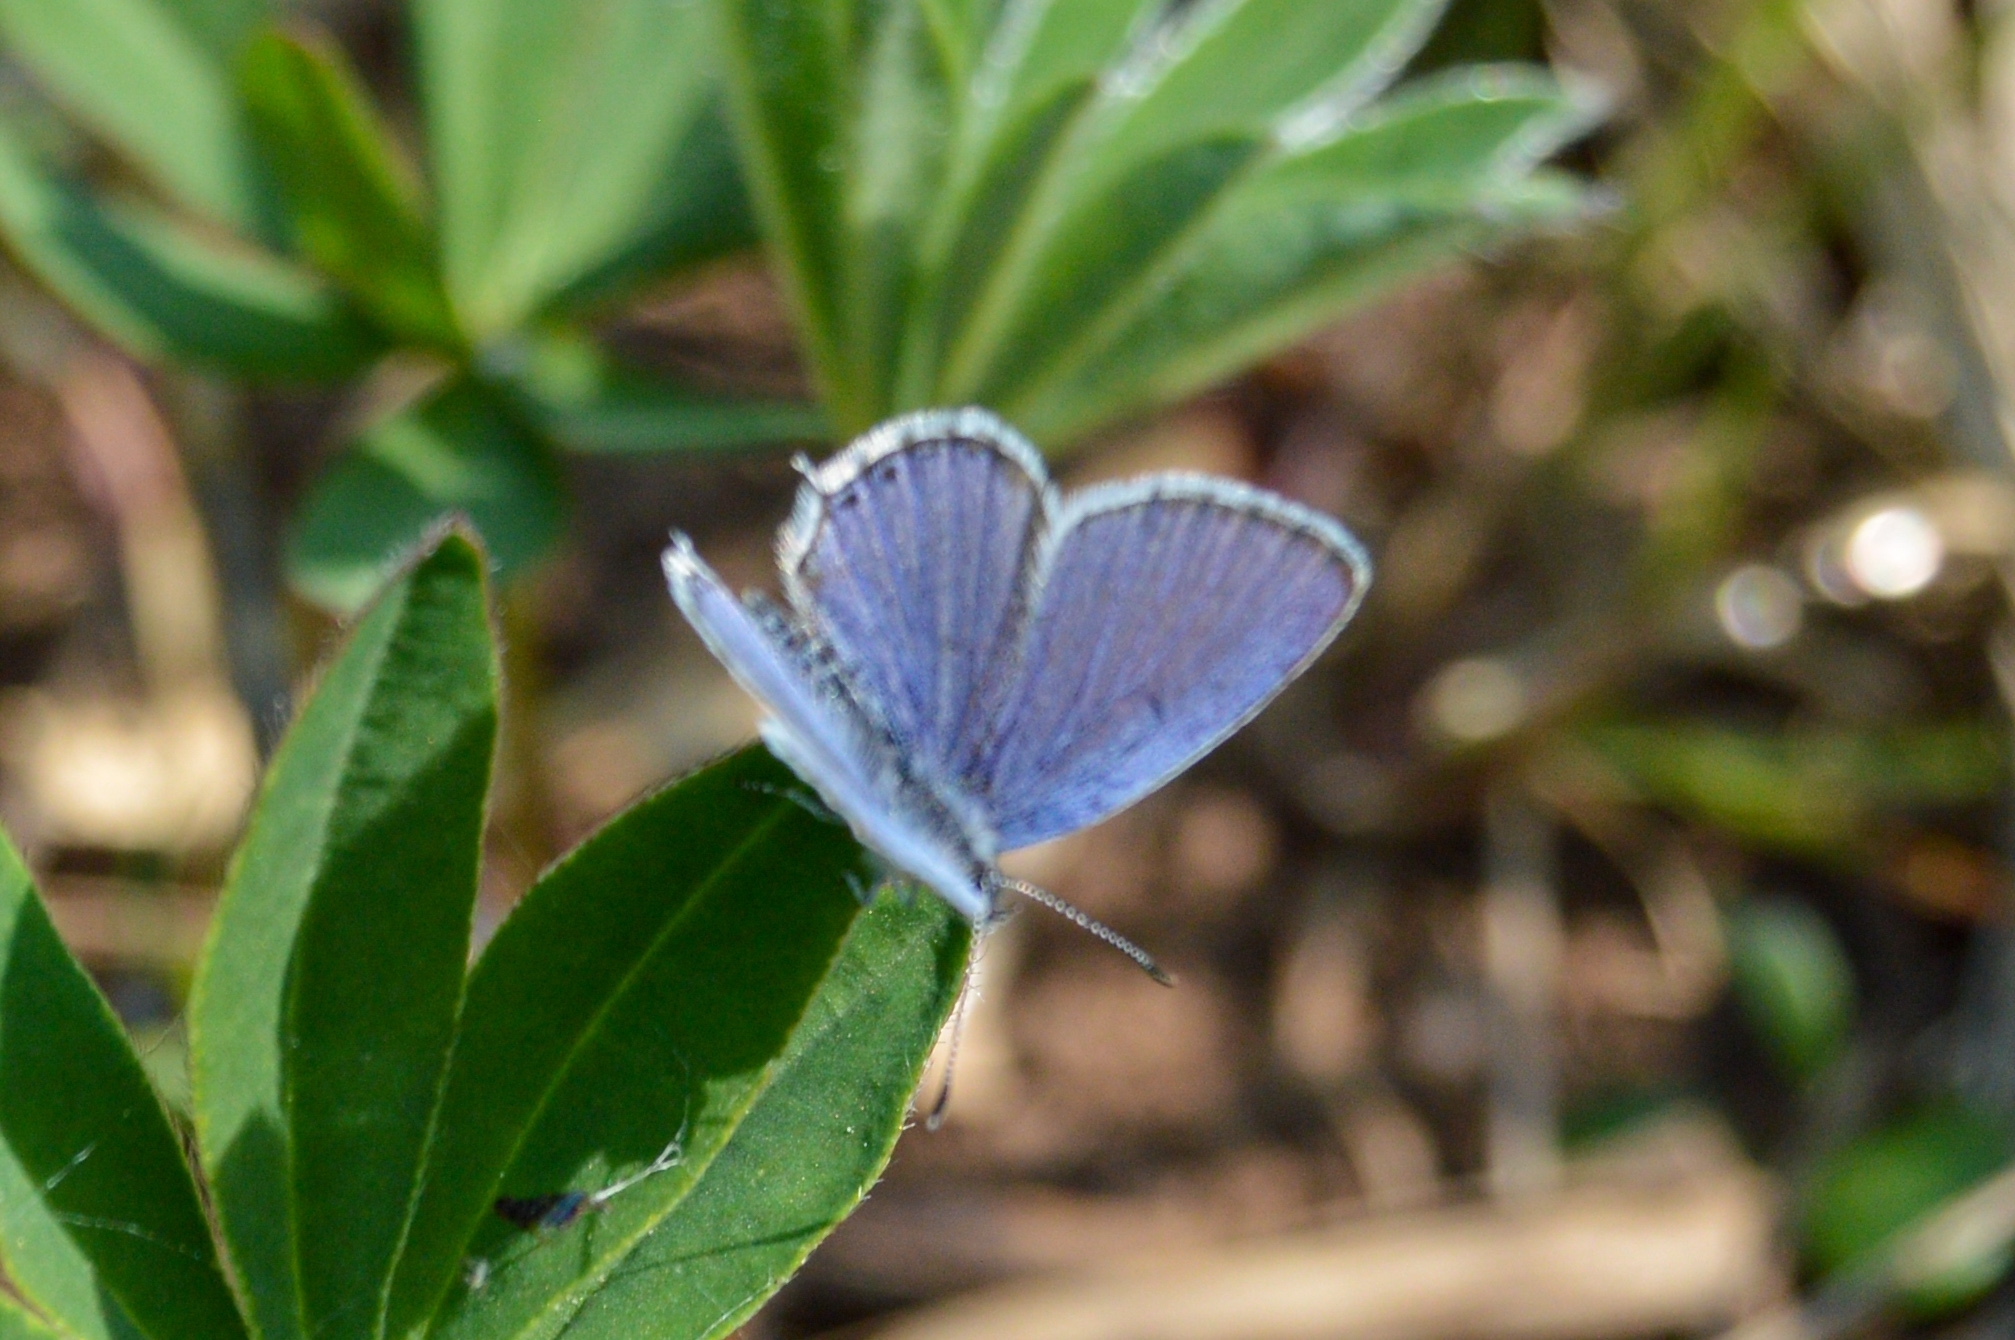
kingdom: Animalia
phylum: Arthropoda
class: Insecta
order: Lepidoptera
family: Lycaenidae
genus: Elkalyce
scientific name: Elkalyce argiades
